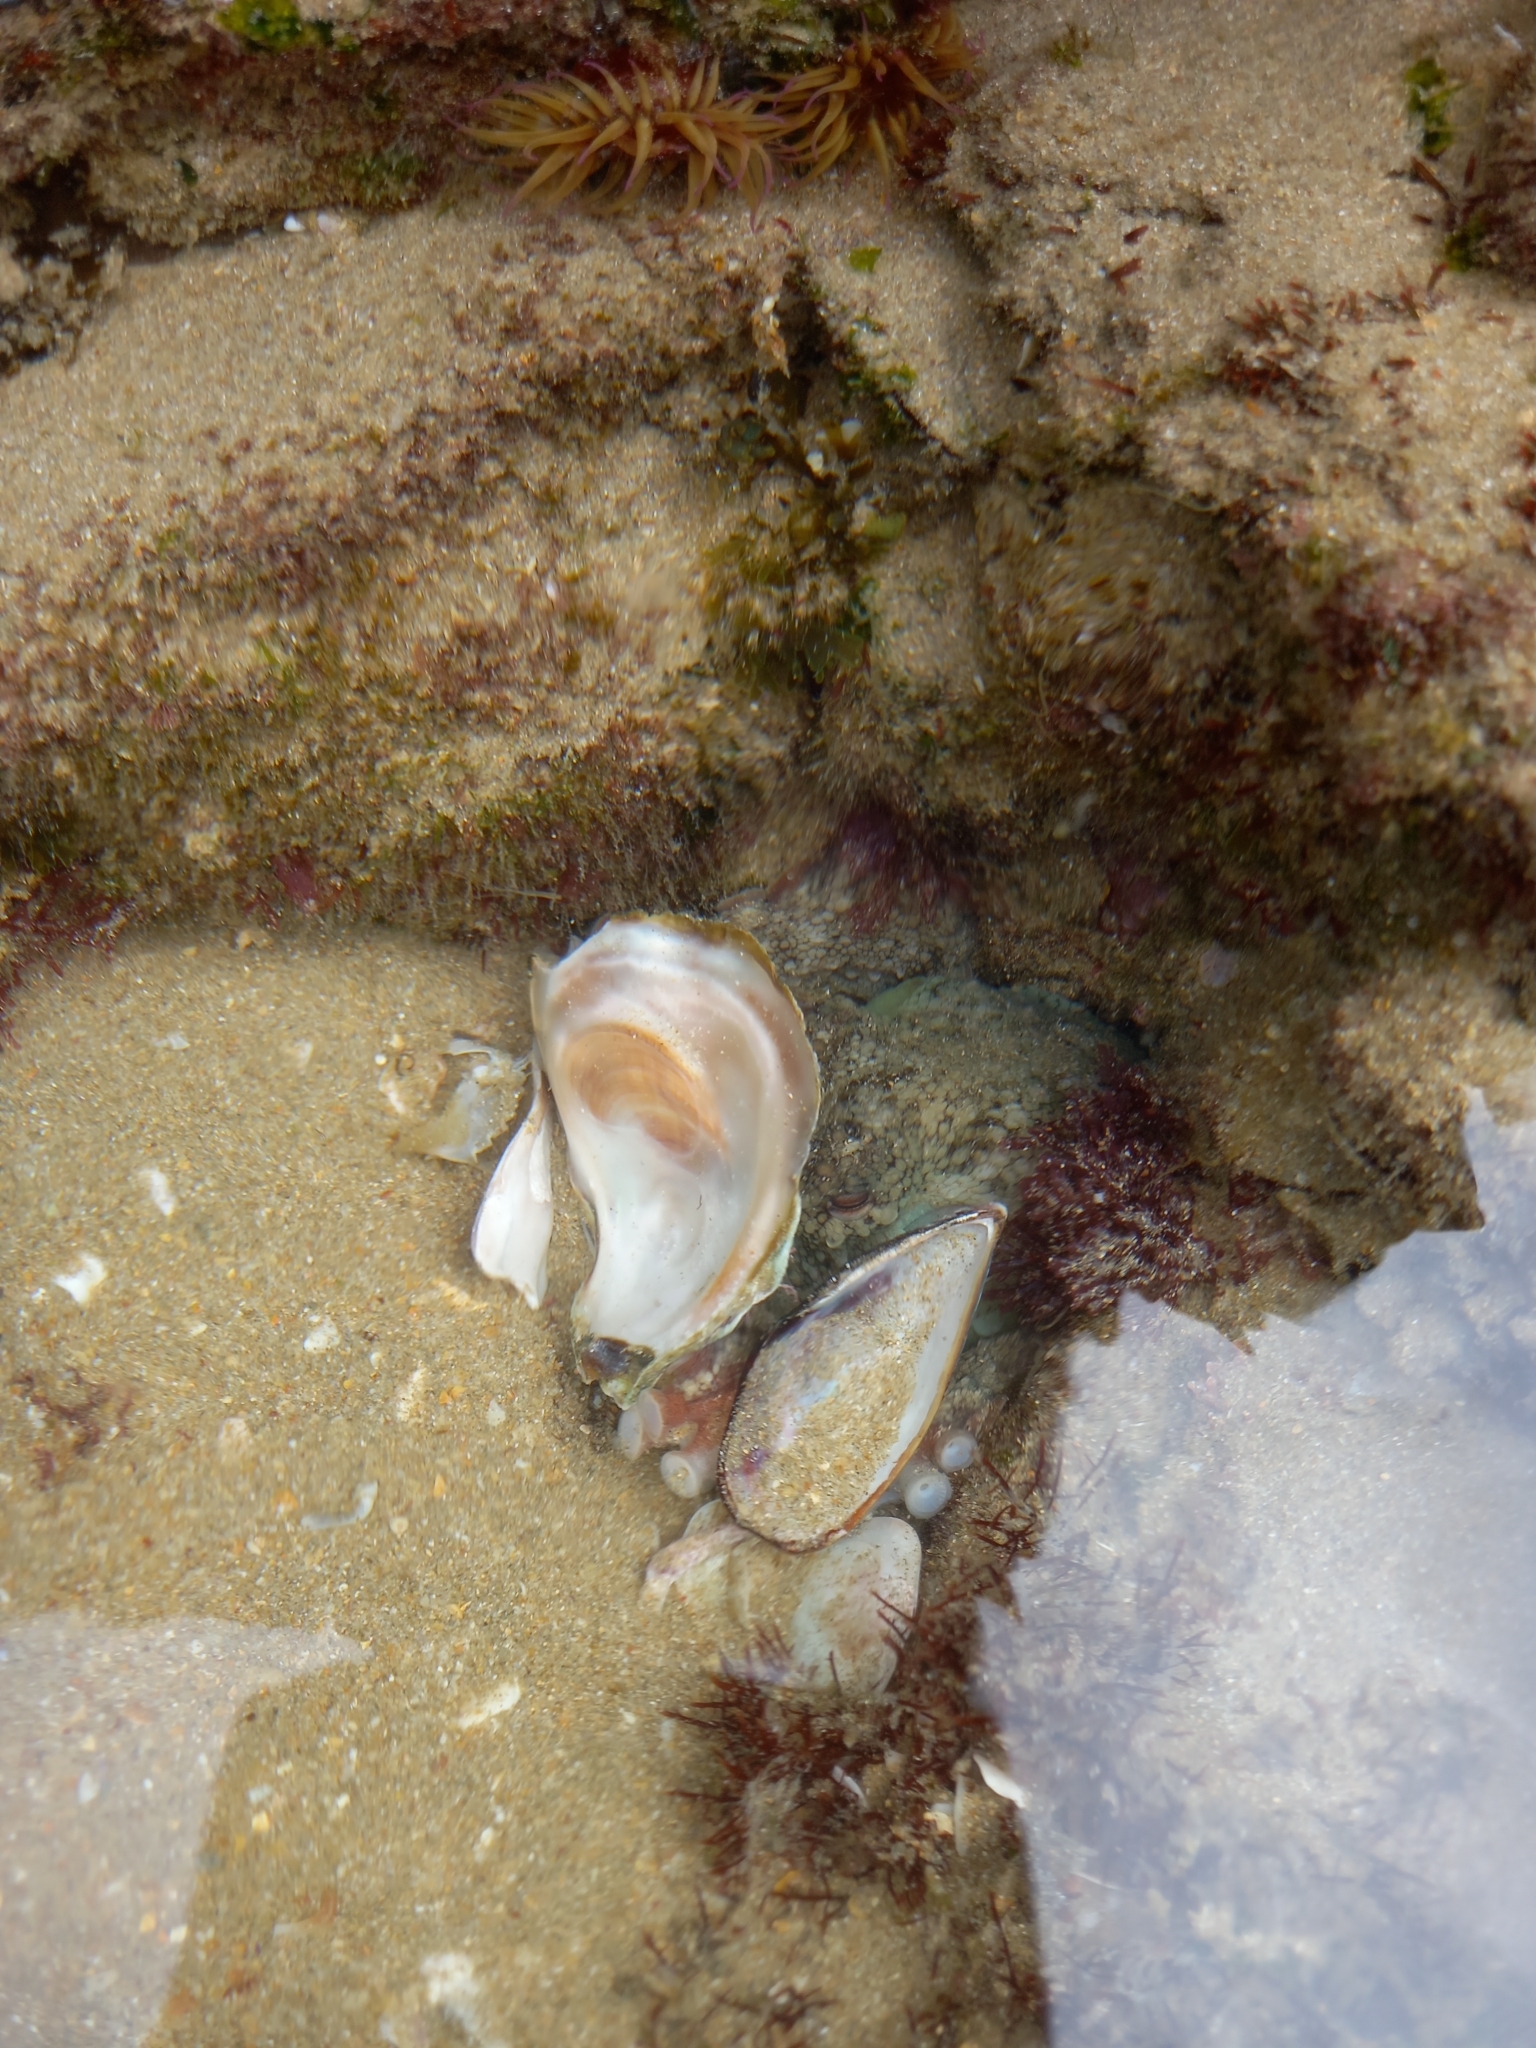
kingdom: Animalia
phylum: Mollusca
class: Cephalopoda
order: Octopoda
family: Octopodidae
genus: Octopus
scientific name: Octopus vulgaris
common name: Common octopus
